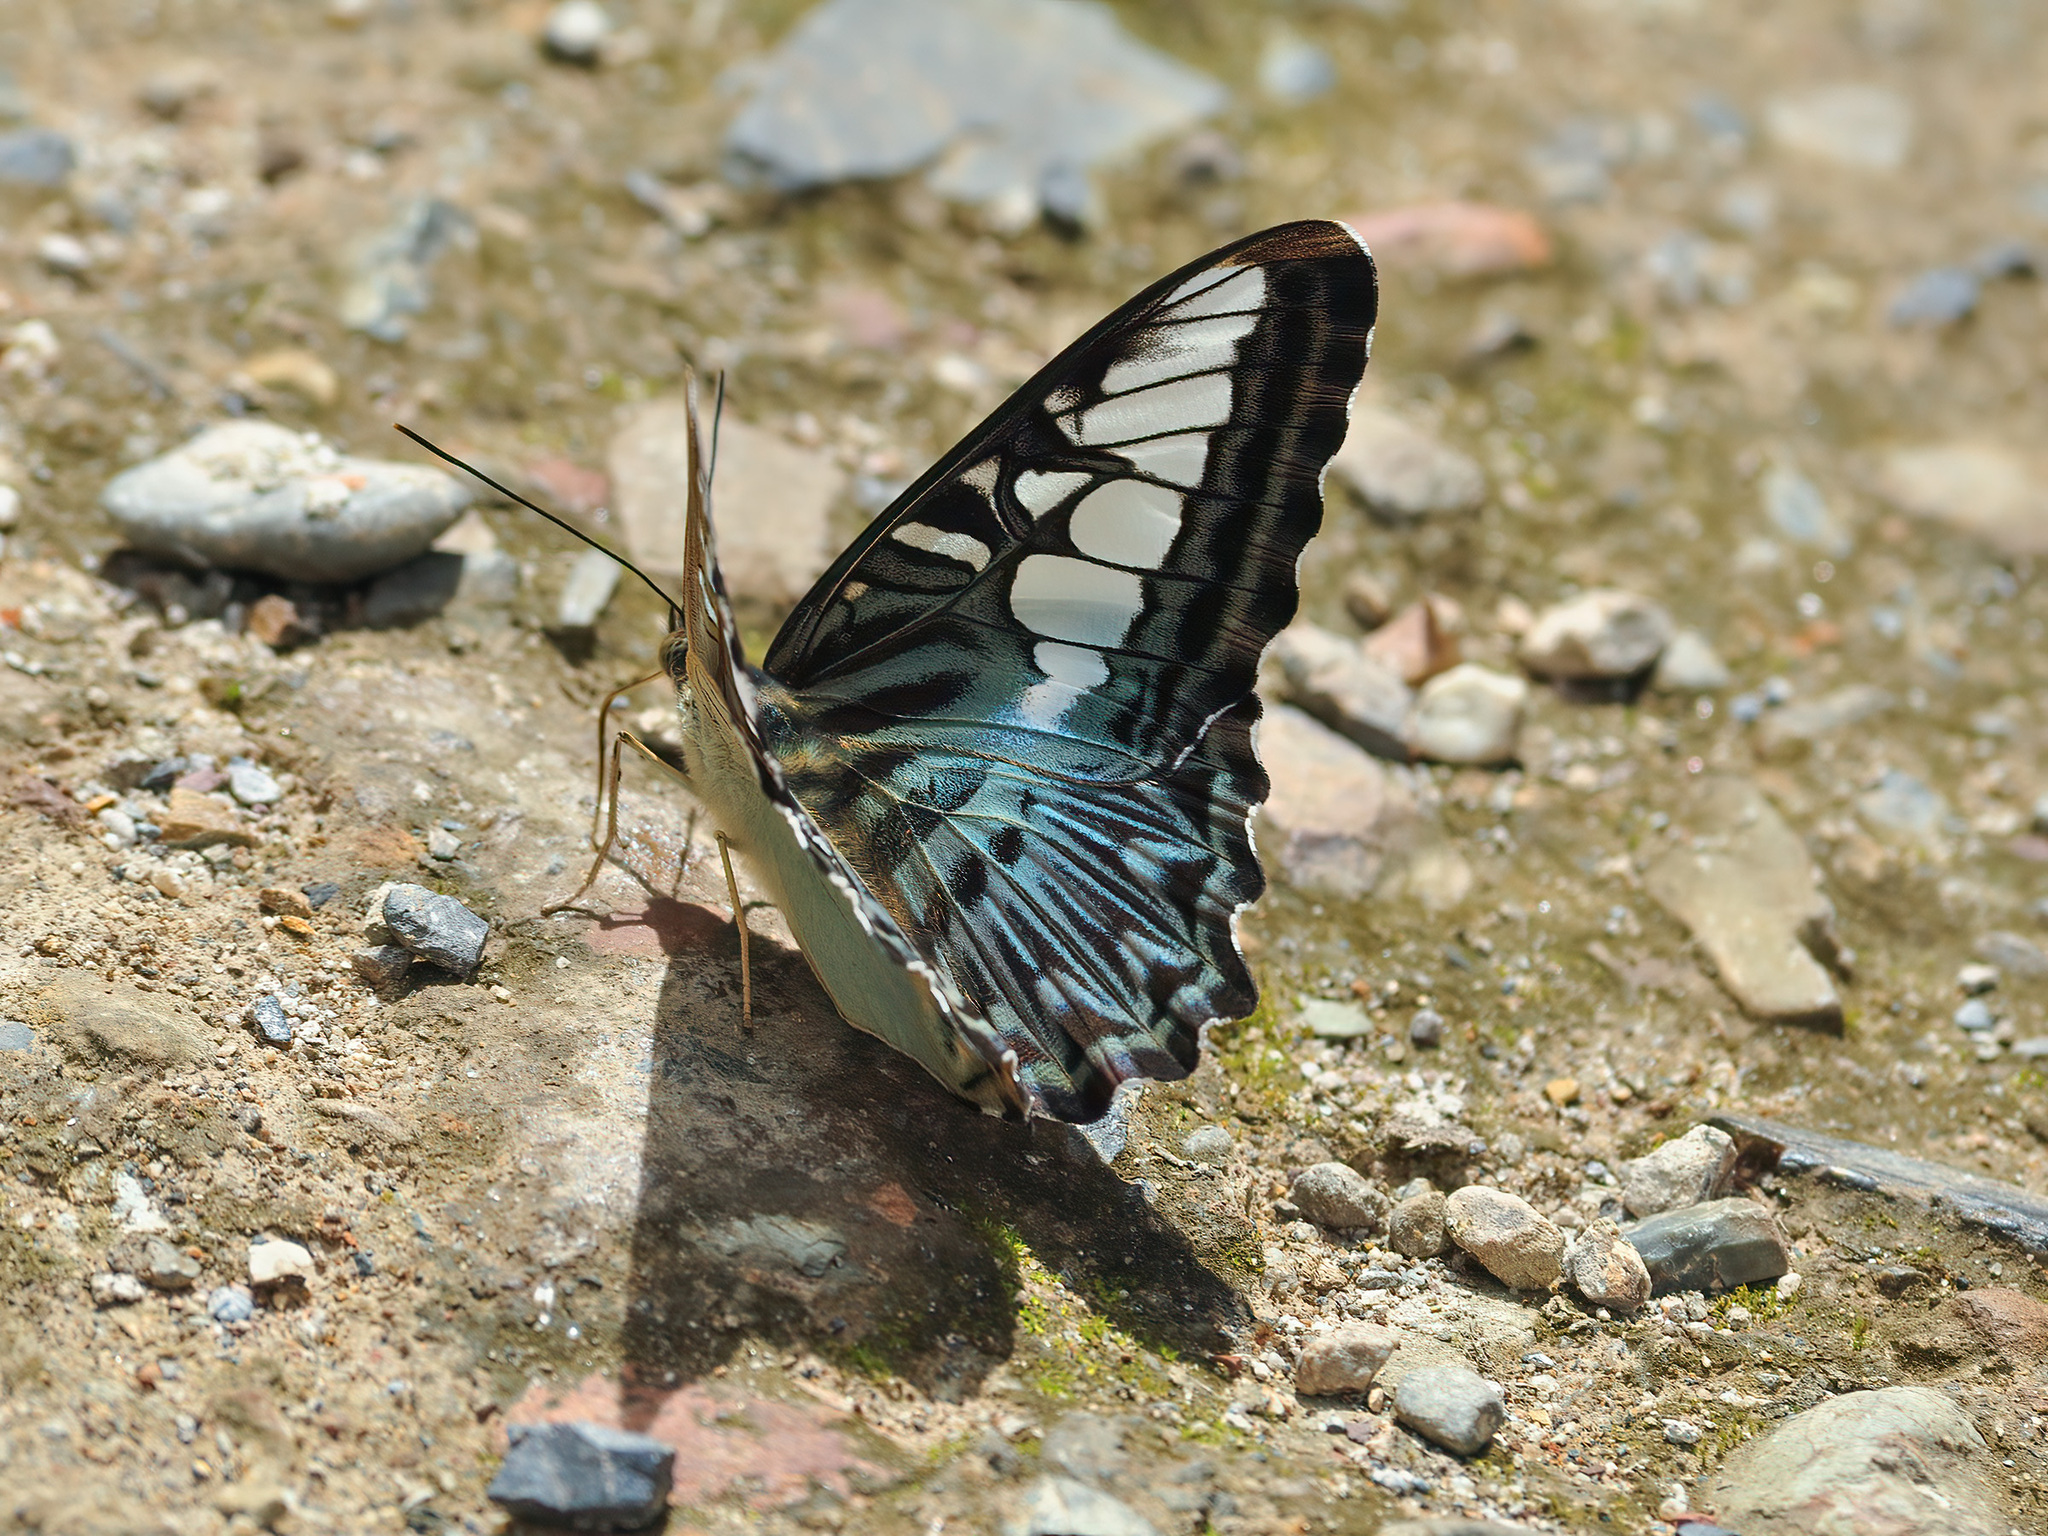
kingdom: Animalia
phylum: Arthropoda
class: Insecta
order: Lepidoptera
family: Nymphalidae
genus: Kallima
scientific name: Kallima sylvia
